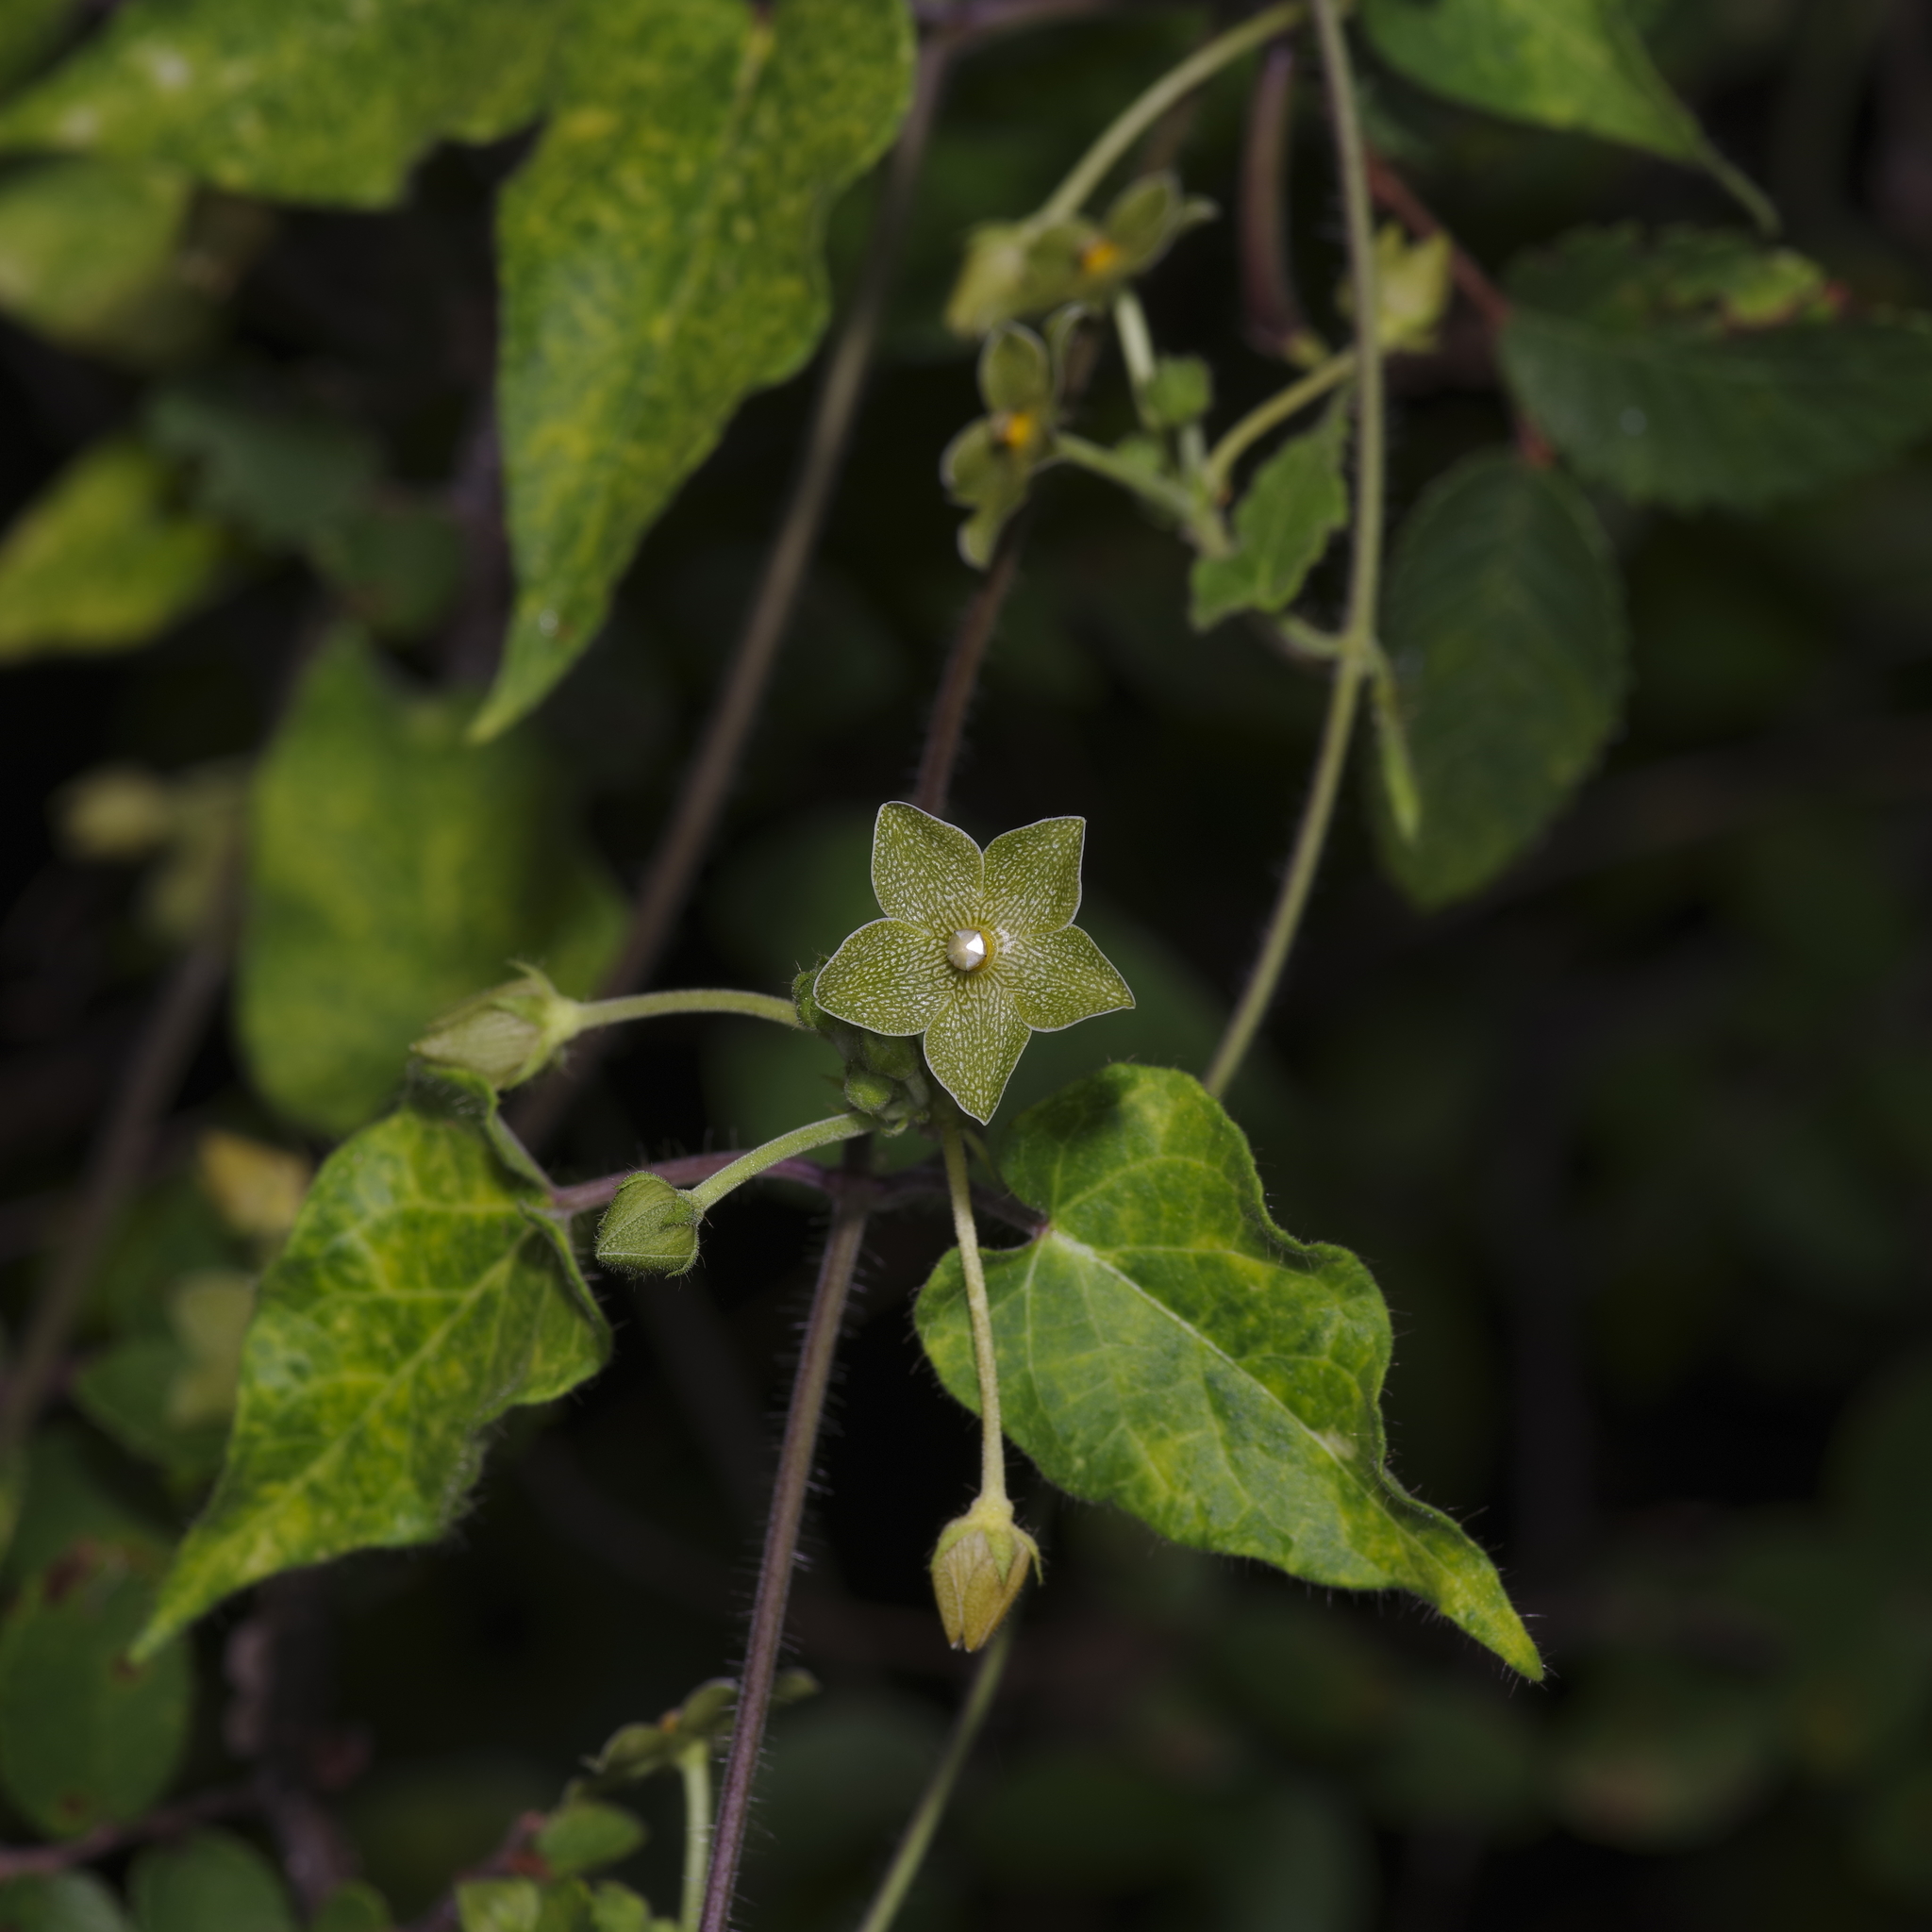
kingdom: Plantae
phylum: Tracheophyta
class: Magnoliopsida
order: Gentianales
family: Apocynaceae
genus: Dictyanthus
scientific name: Dictyanthus reticulatus
